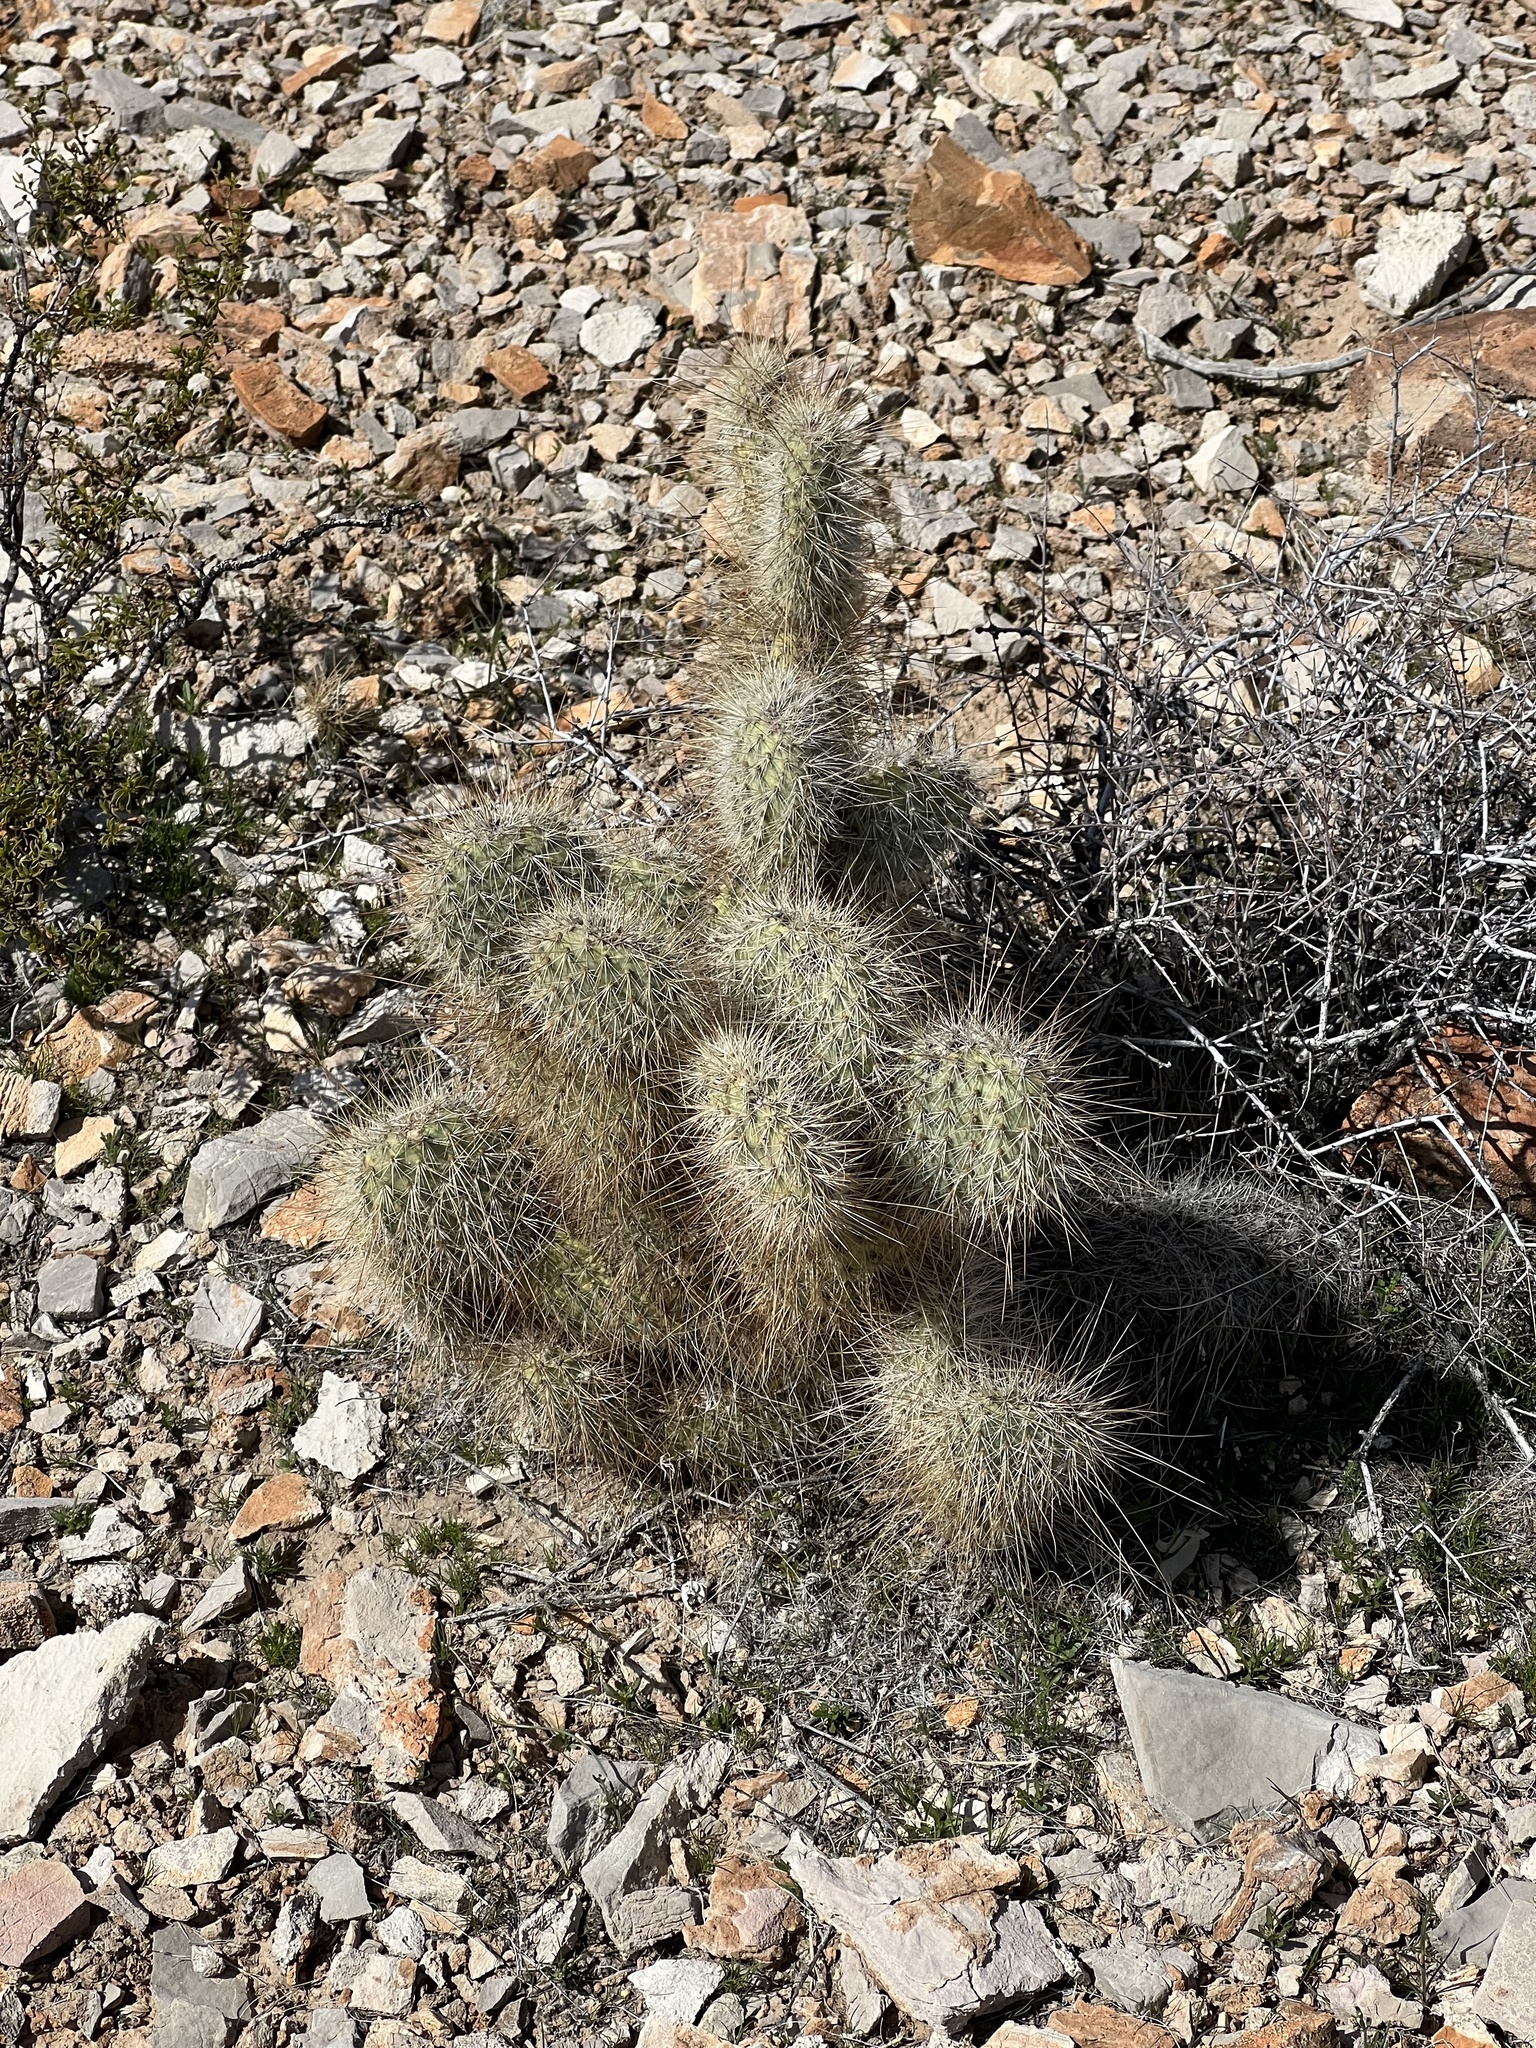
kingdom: Plantae
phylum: Tracheophyta
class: Magnoliopsida
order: Caryophyllales
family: Cactaceae
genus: Opuntia
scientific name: Opuntia polyacantha
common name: Plains prickly-pear
